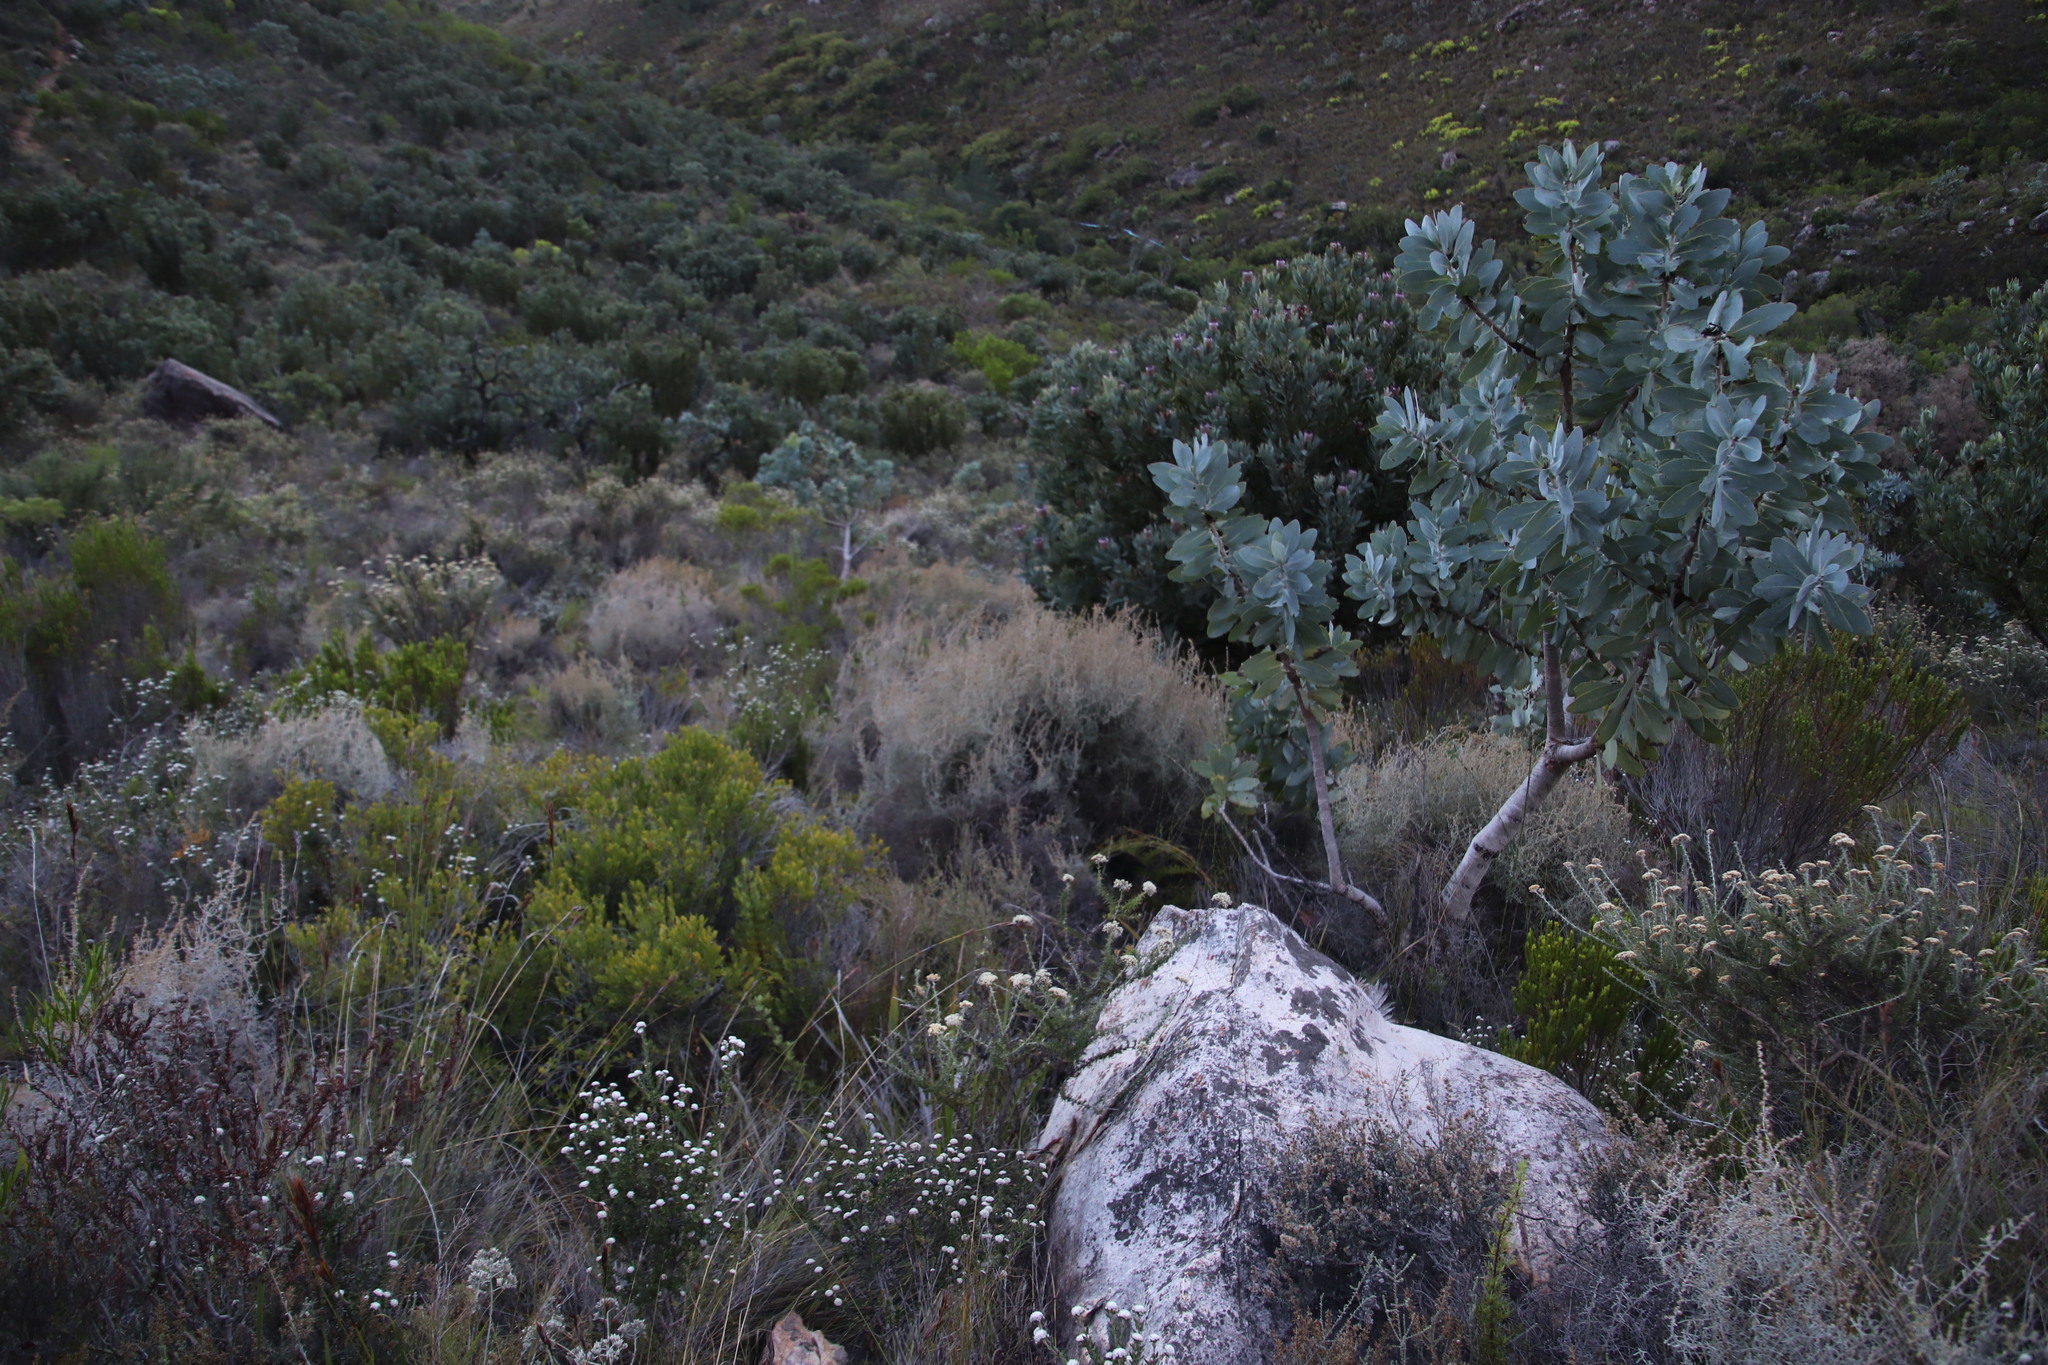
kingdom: Plantae
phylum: Tracheophyta
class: Magnoliopsida
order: Proteales
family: Proteaceae
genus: Protea
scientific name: Protea nitida
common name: Tree protea
